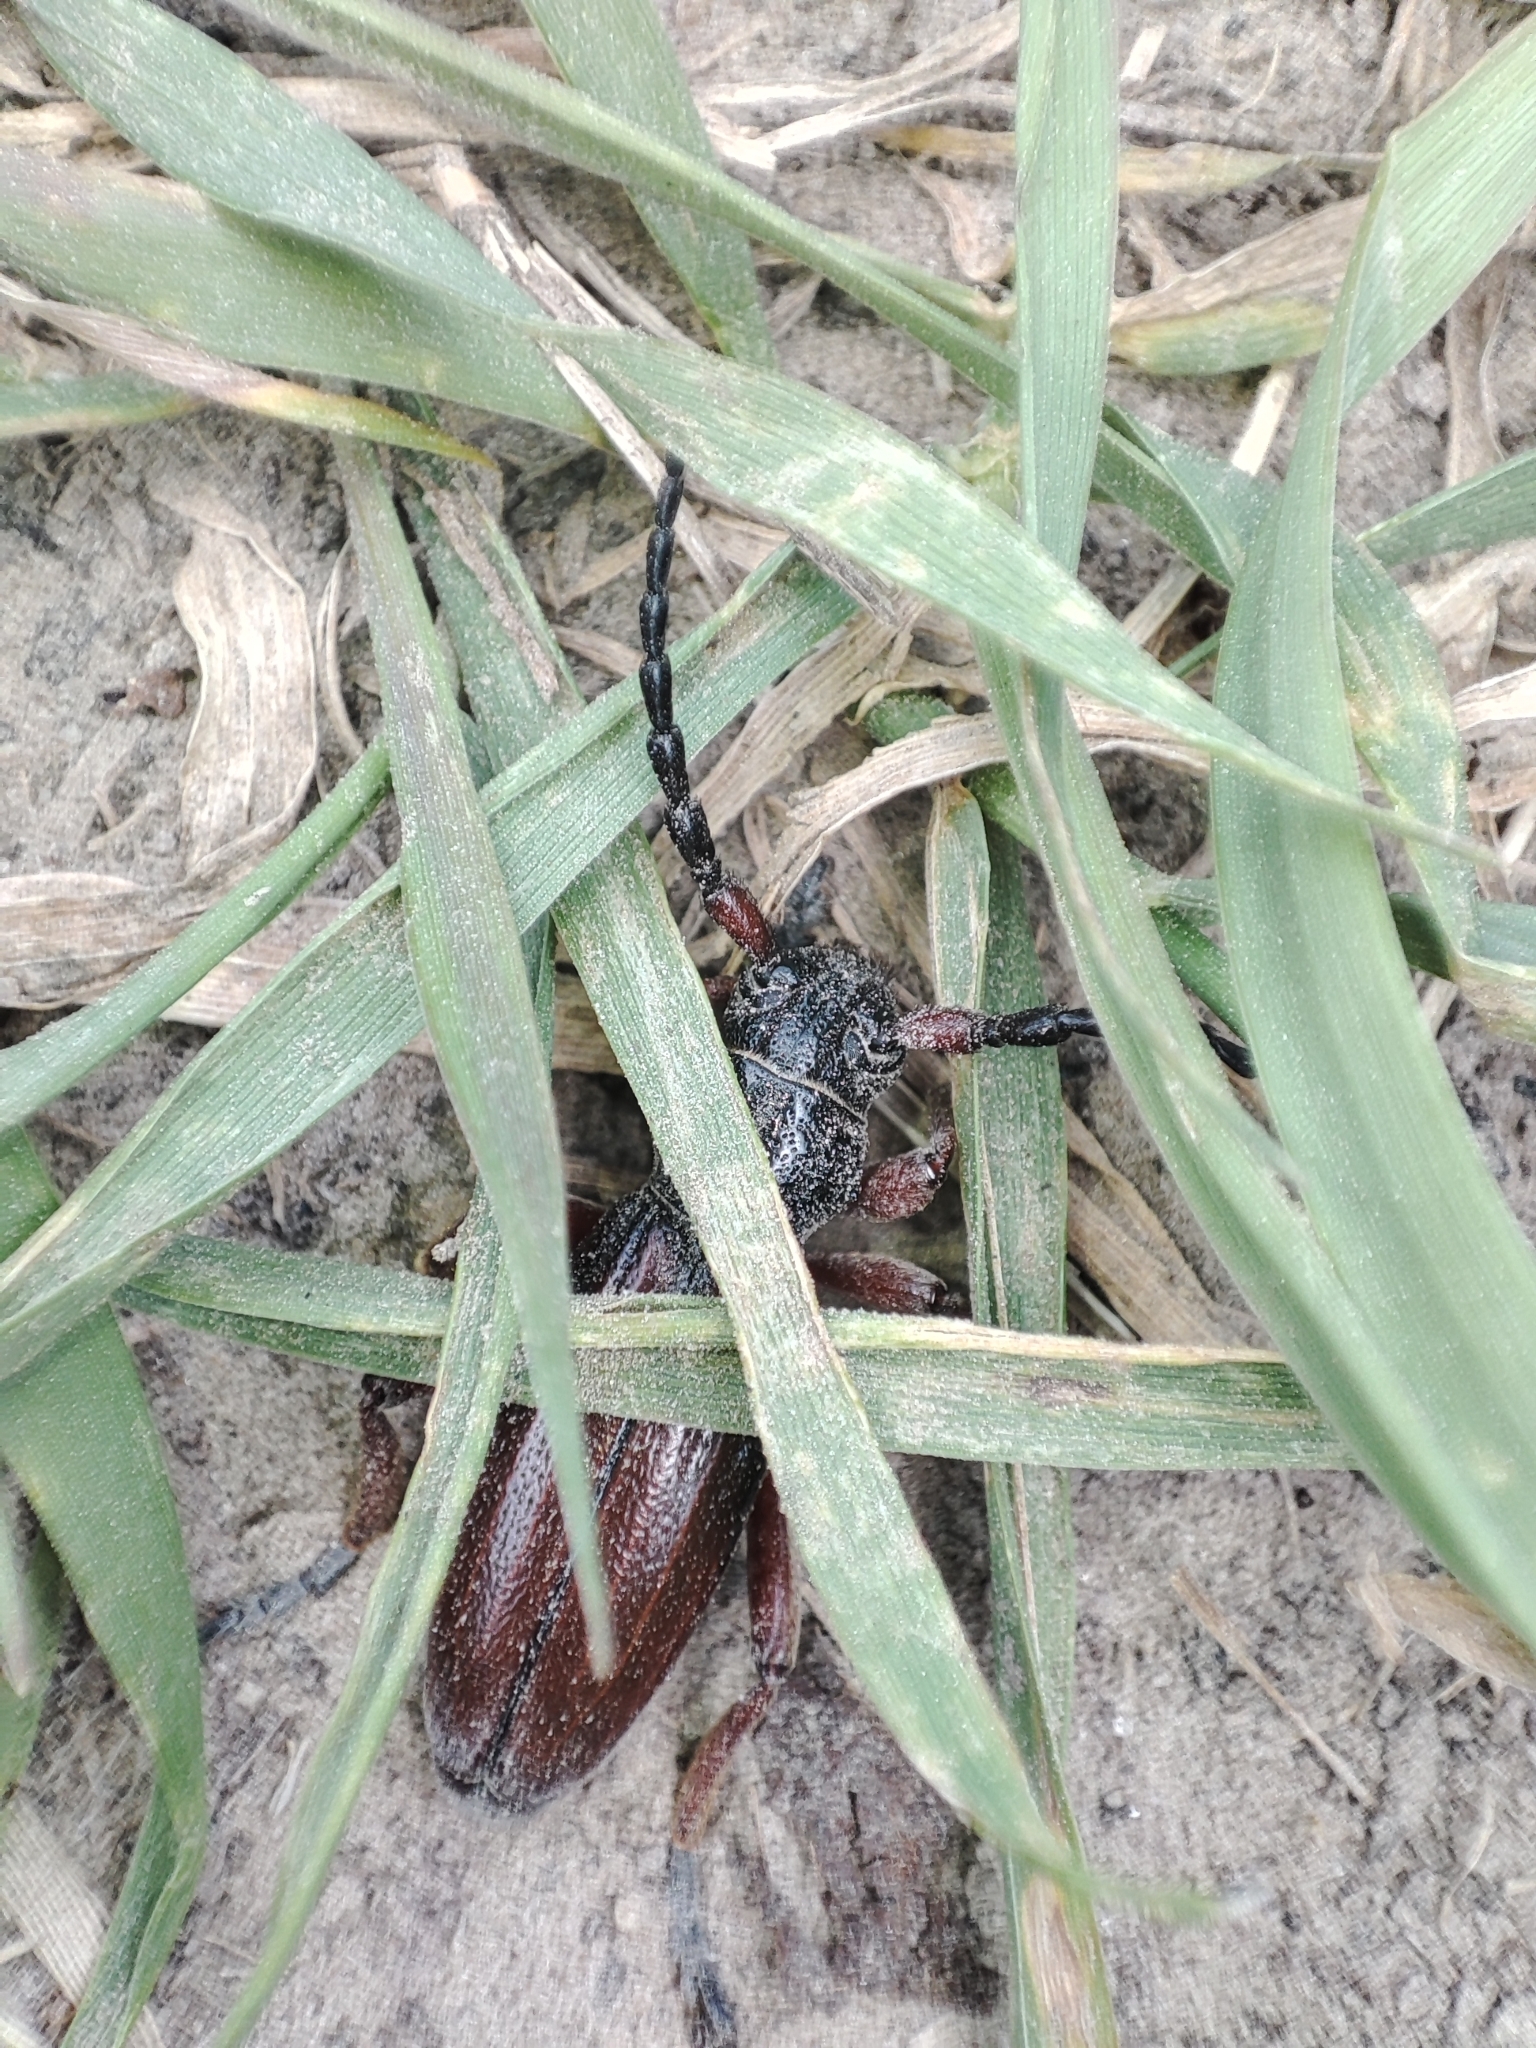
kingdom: Animalia
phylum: Arthropoda
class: Insecta
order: Coleoptera
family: Cerambycidae
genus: Dorcadion
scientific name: Dorcadion fulvum
